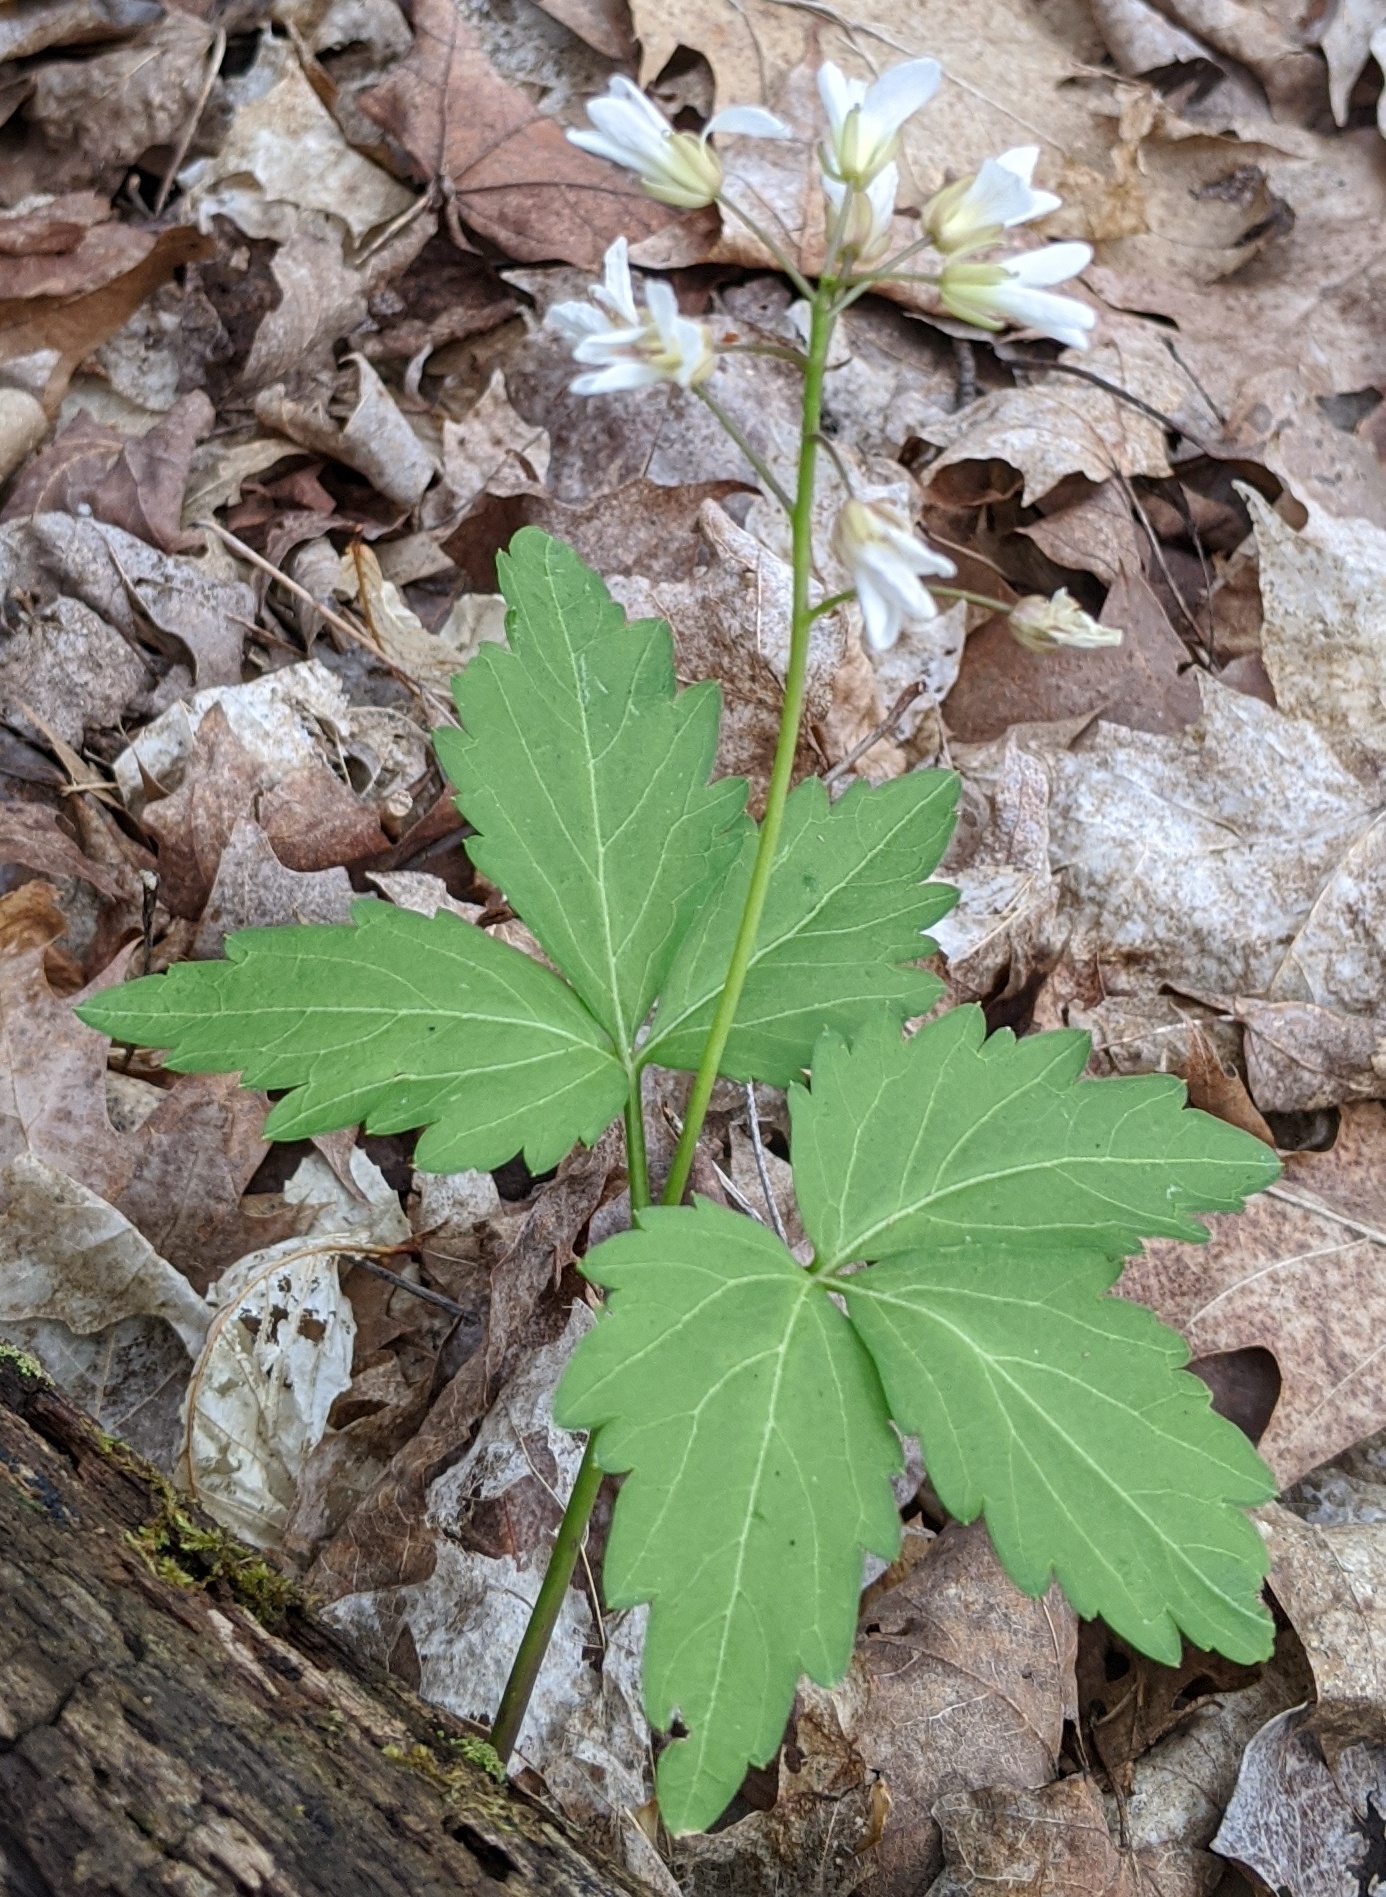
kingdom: Plantae
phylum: Tracheophyta
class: Magnoliopsida
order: Brassicales
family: Brassicaceae
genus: Cardamine
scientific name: Cardamine diphylla
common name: Broad-leaved toothwort
